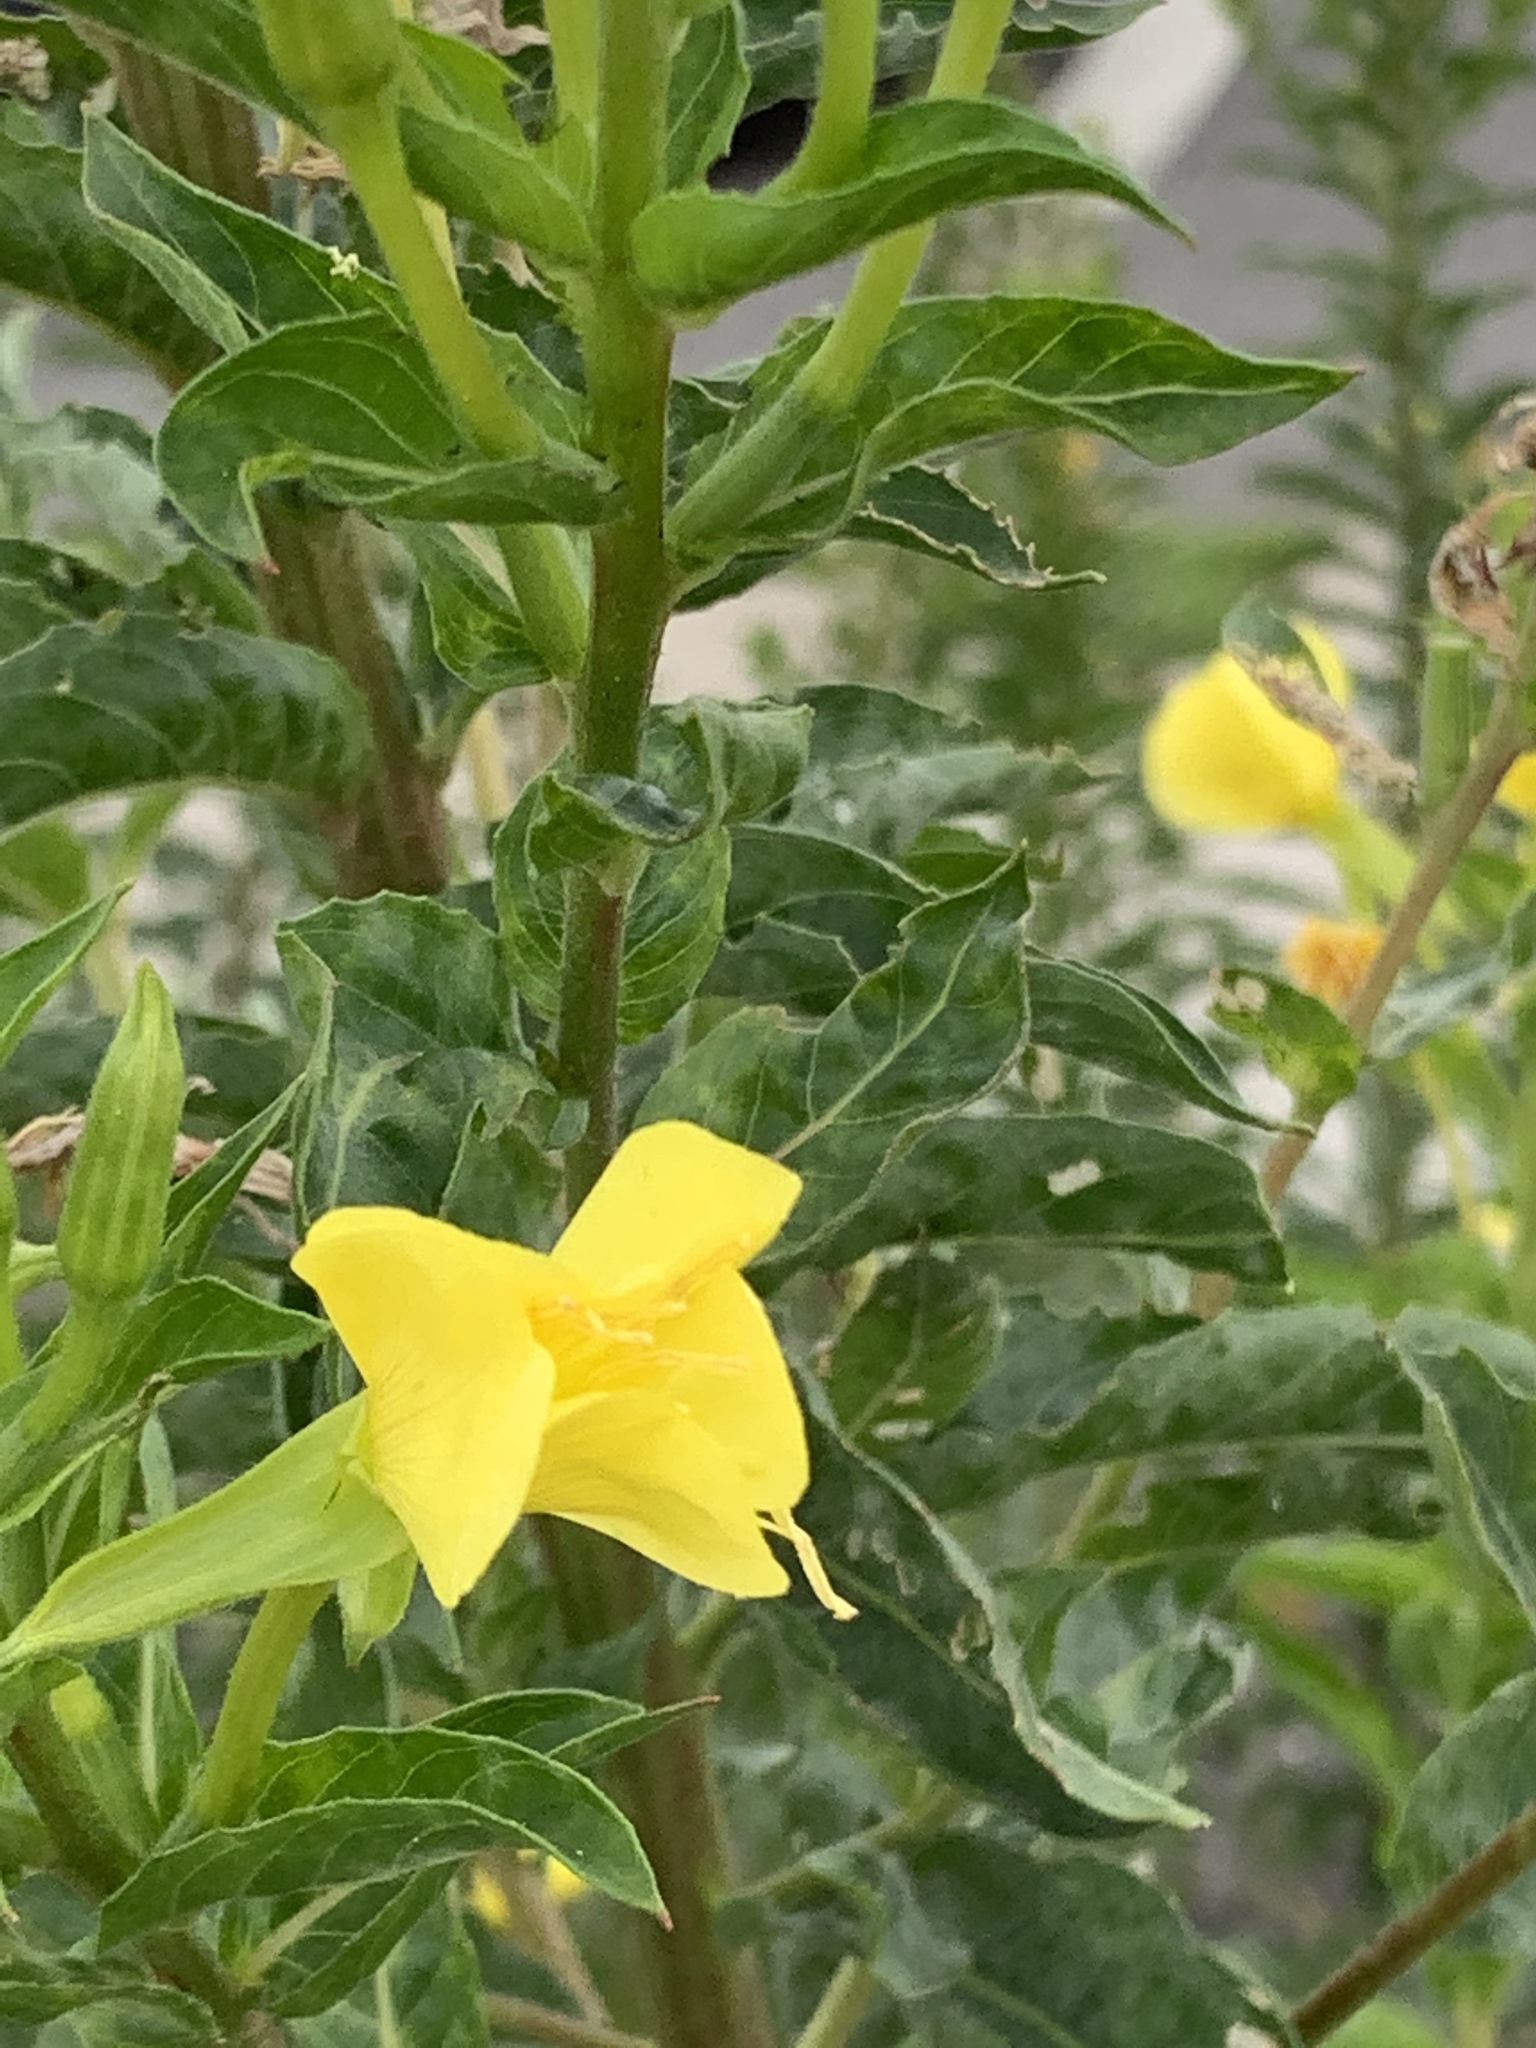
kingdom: Plantae
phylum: Tracheophyta
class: Magnoliopsida
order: Myrtales
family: Onagraceae
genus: Oenothera
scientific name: Oenothera biennis
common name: Common evening-primrose
